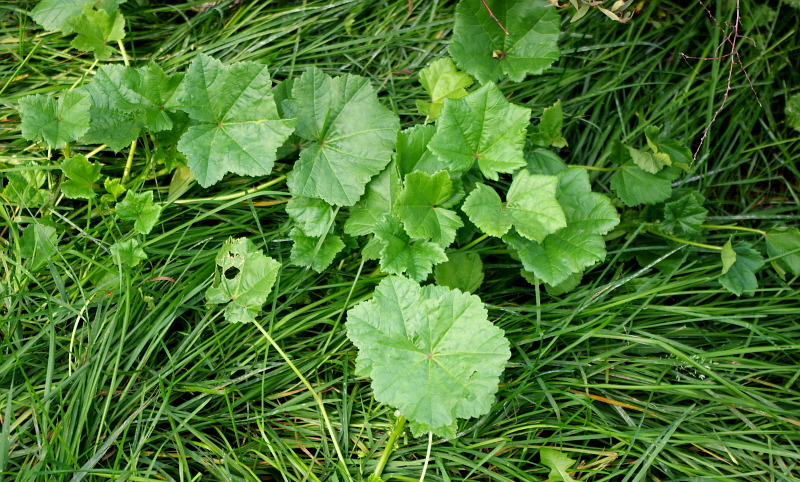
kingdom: Plantae
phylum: Tracheophyta
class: Magnoliopsida
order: Malvales
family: Malvaceae
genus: Malva
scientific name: Malva pusilla
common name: Small mallow
